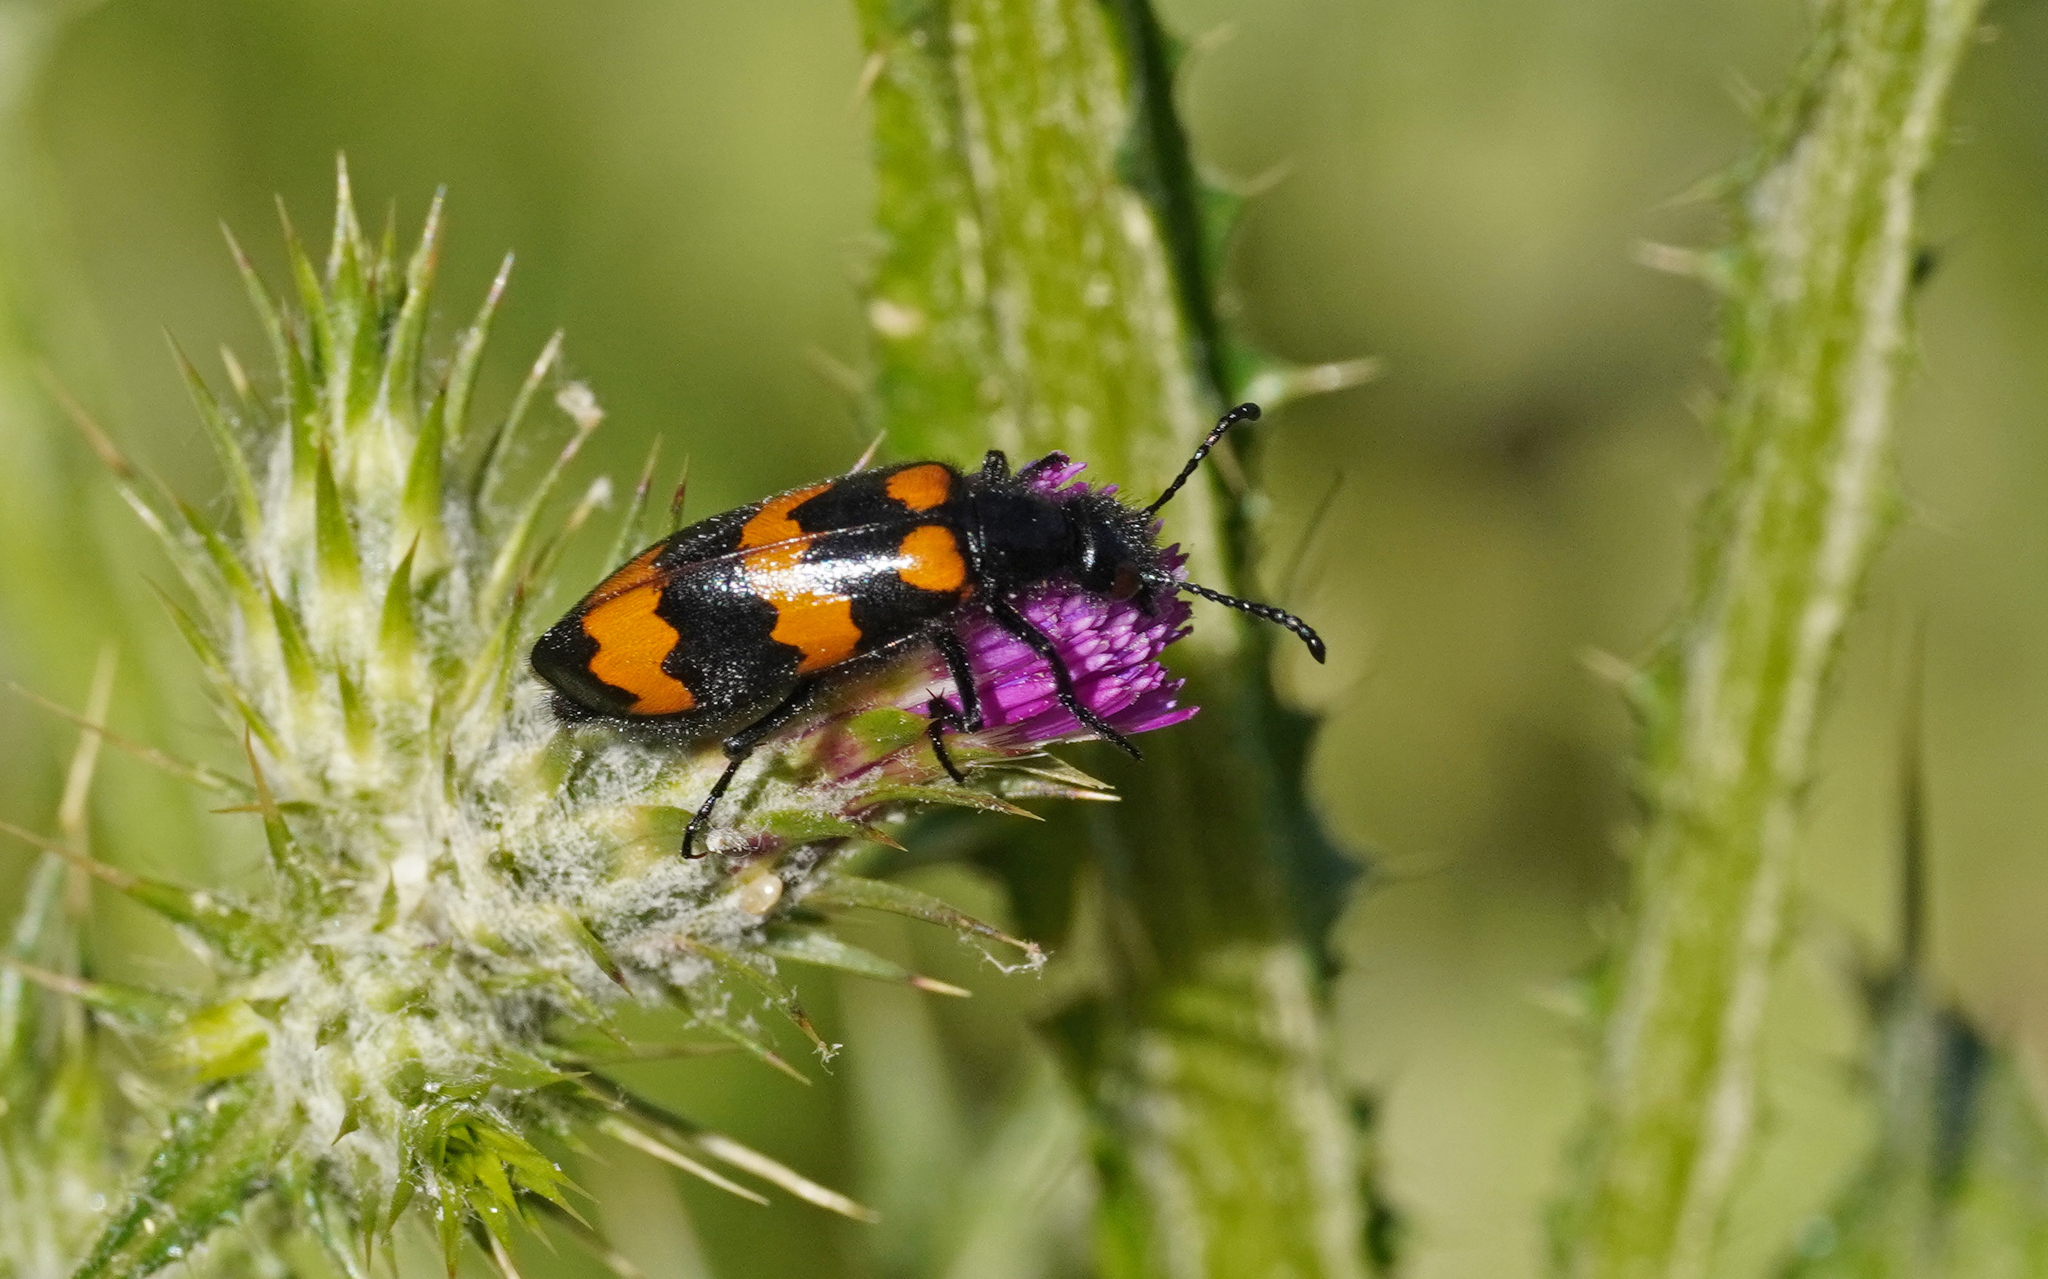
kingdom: Animalia
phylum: Arthropoda
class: Insecta
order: Coleoptera
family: Meloidae
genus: Mylabris
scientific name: Mylabris variabilis
